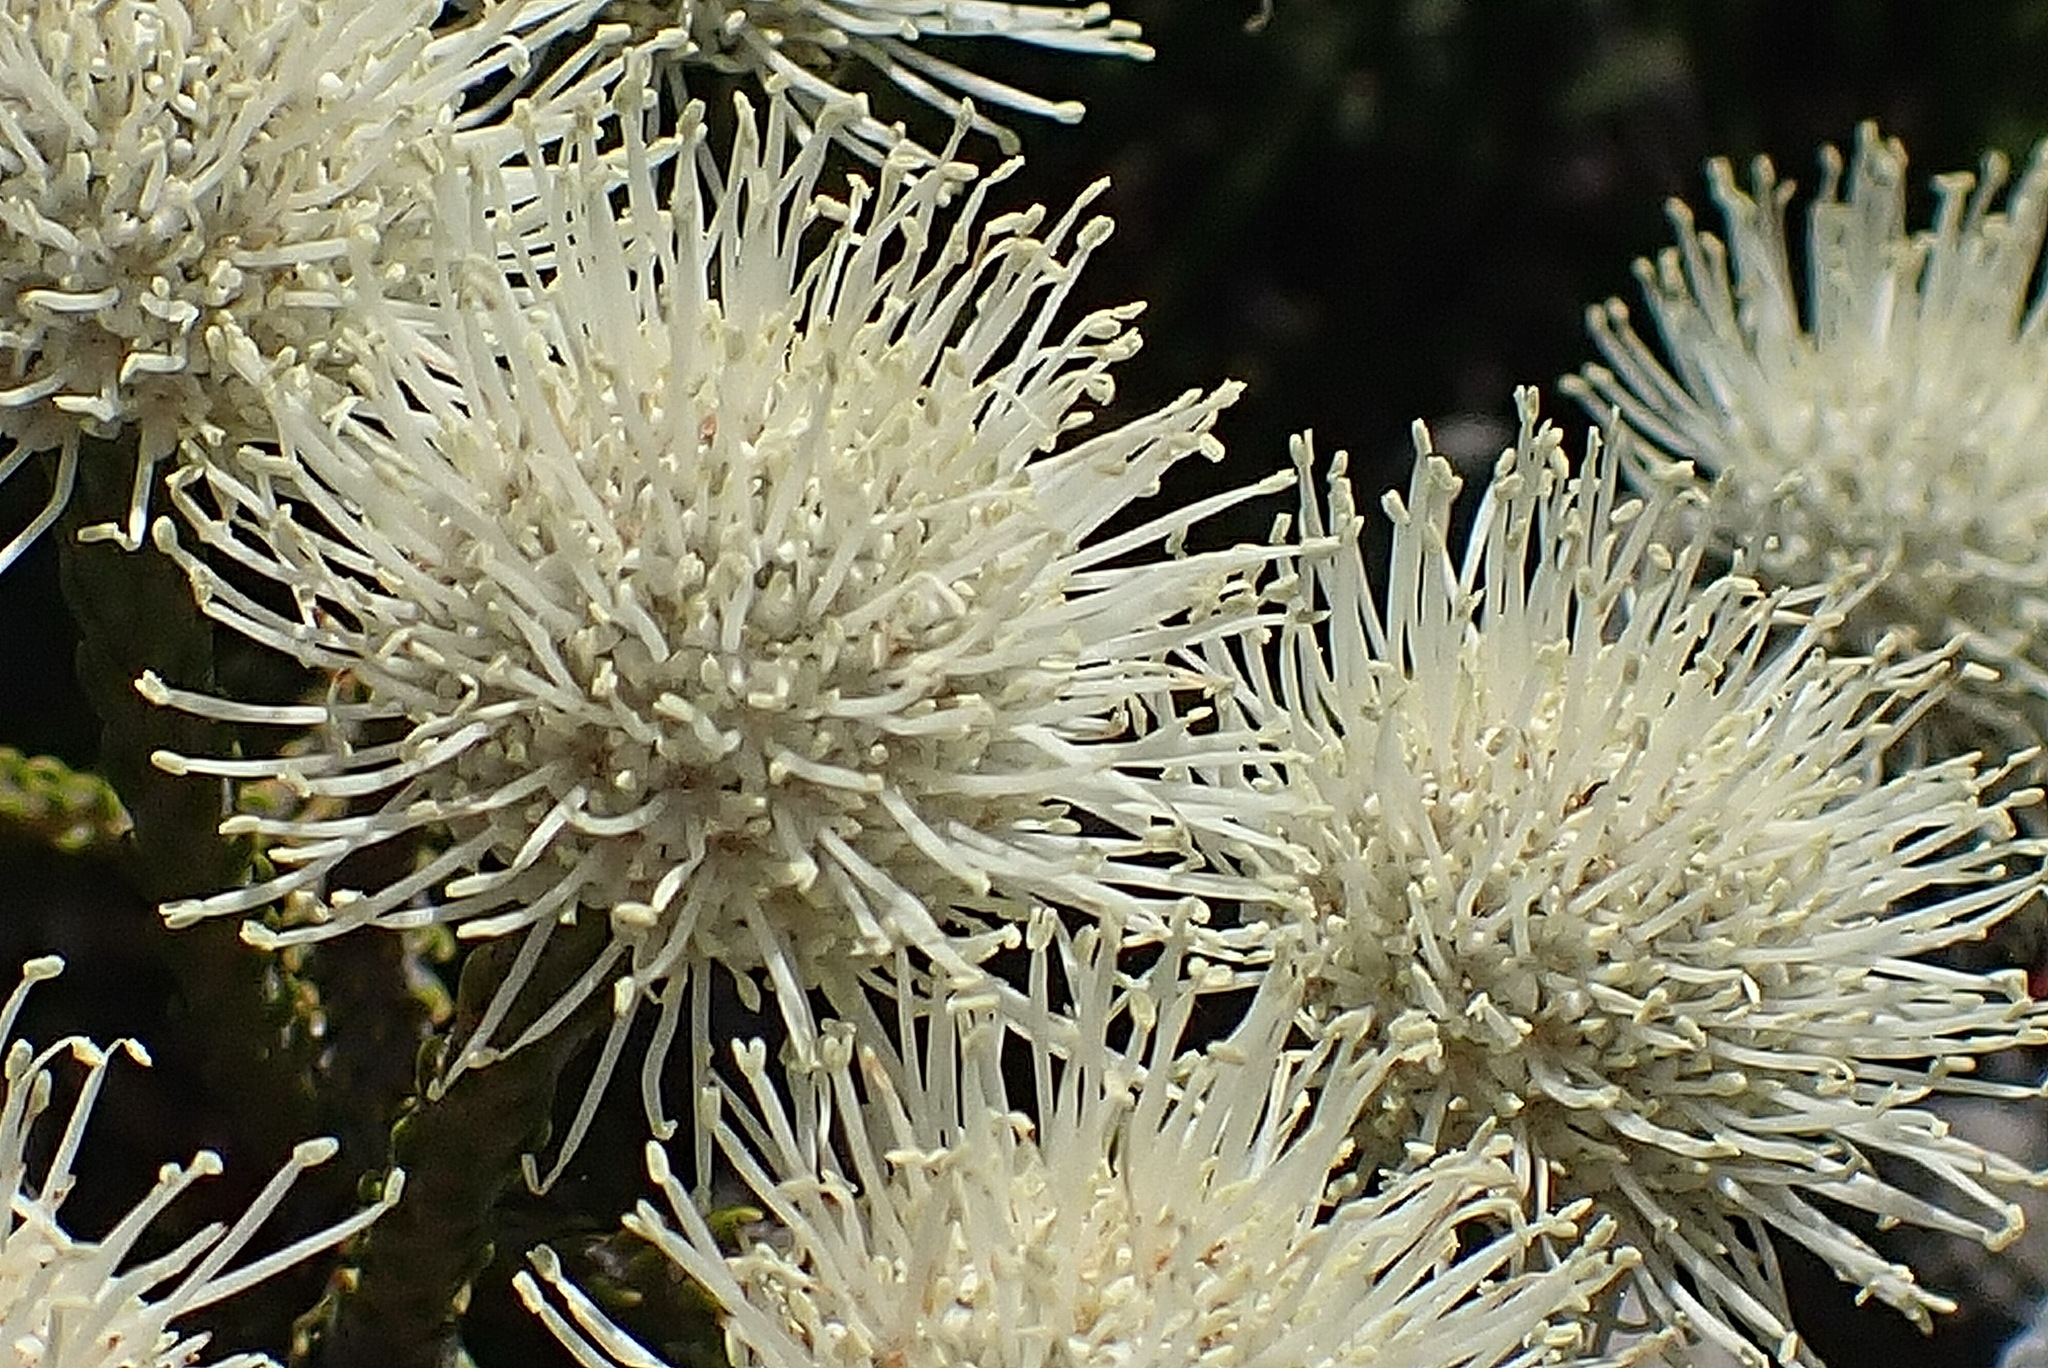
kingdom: Plantae
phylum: Tracheophyta
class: Magnoliopsida
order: Bruniales
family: Bruniaceae
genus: Brunia
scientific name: Brunia noduliflora
